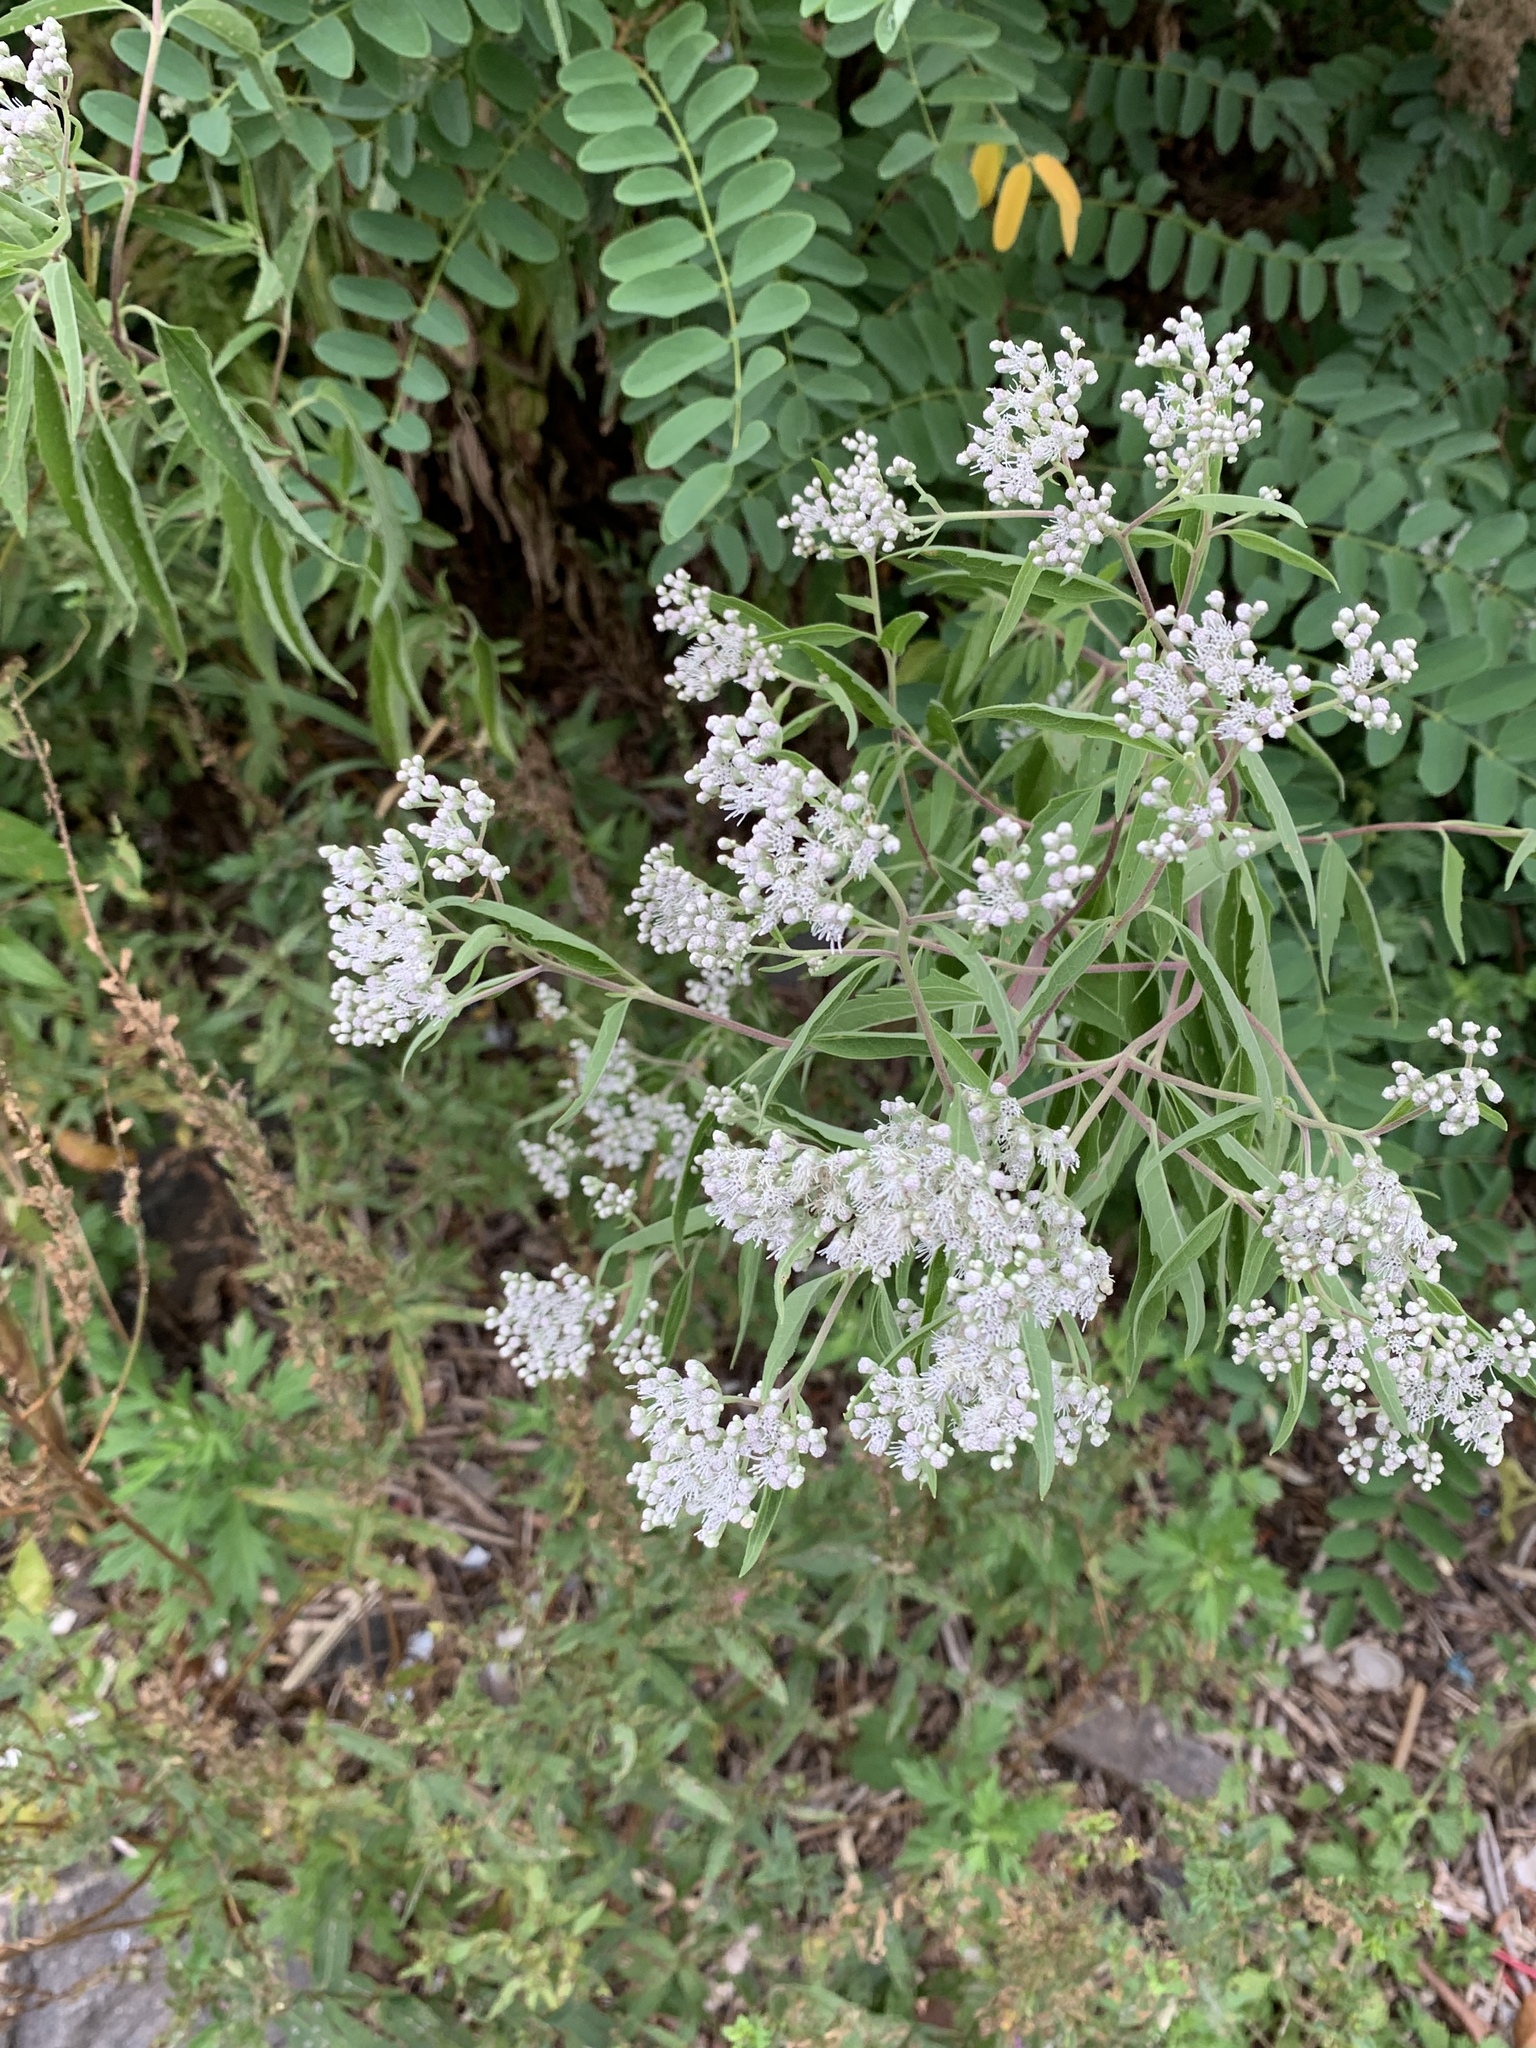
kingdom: Plantae
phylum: Tracheophyta
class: Magnoliopsida
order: Asterales
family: Asteraceae
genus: Eupatorium
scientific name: Eupatorium serotinum
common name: Late boneset
